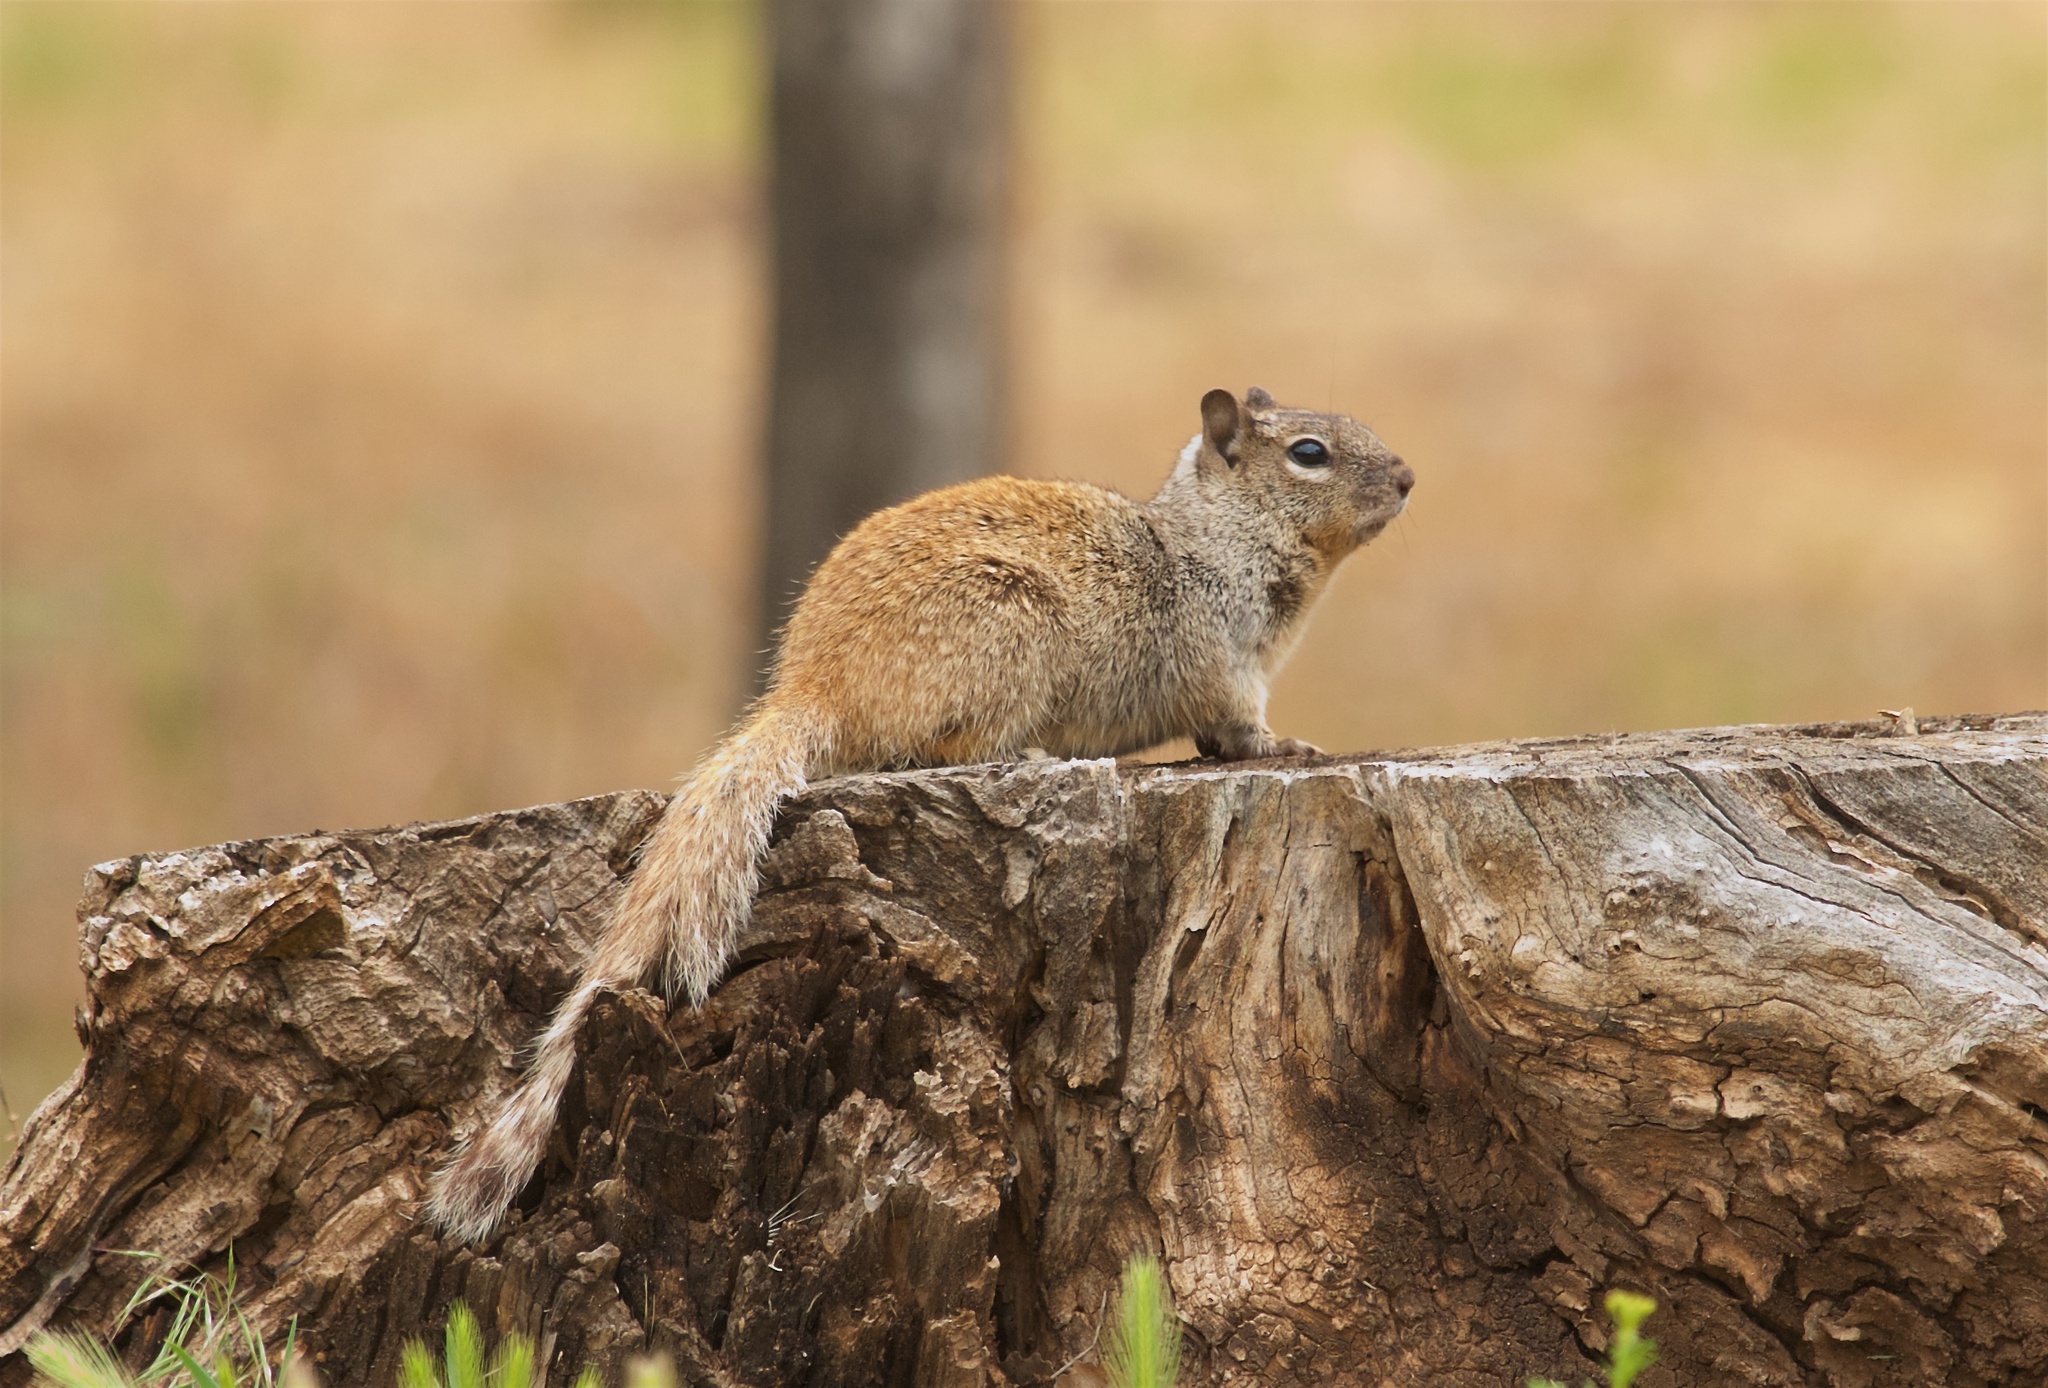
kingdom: Animalia
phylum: Chordata
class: Mammalia
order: Rodentia
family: Sciuridae
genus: Otospermophilus
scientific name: Otospermophilus variegatus
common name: Rock squirrel
